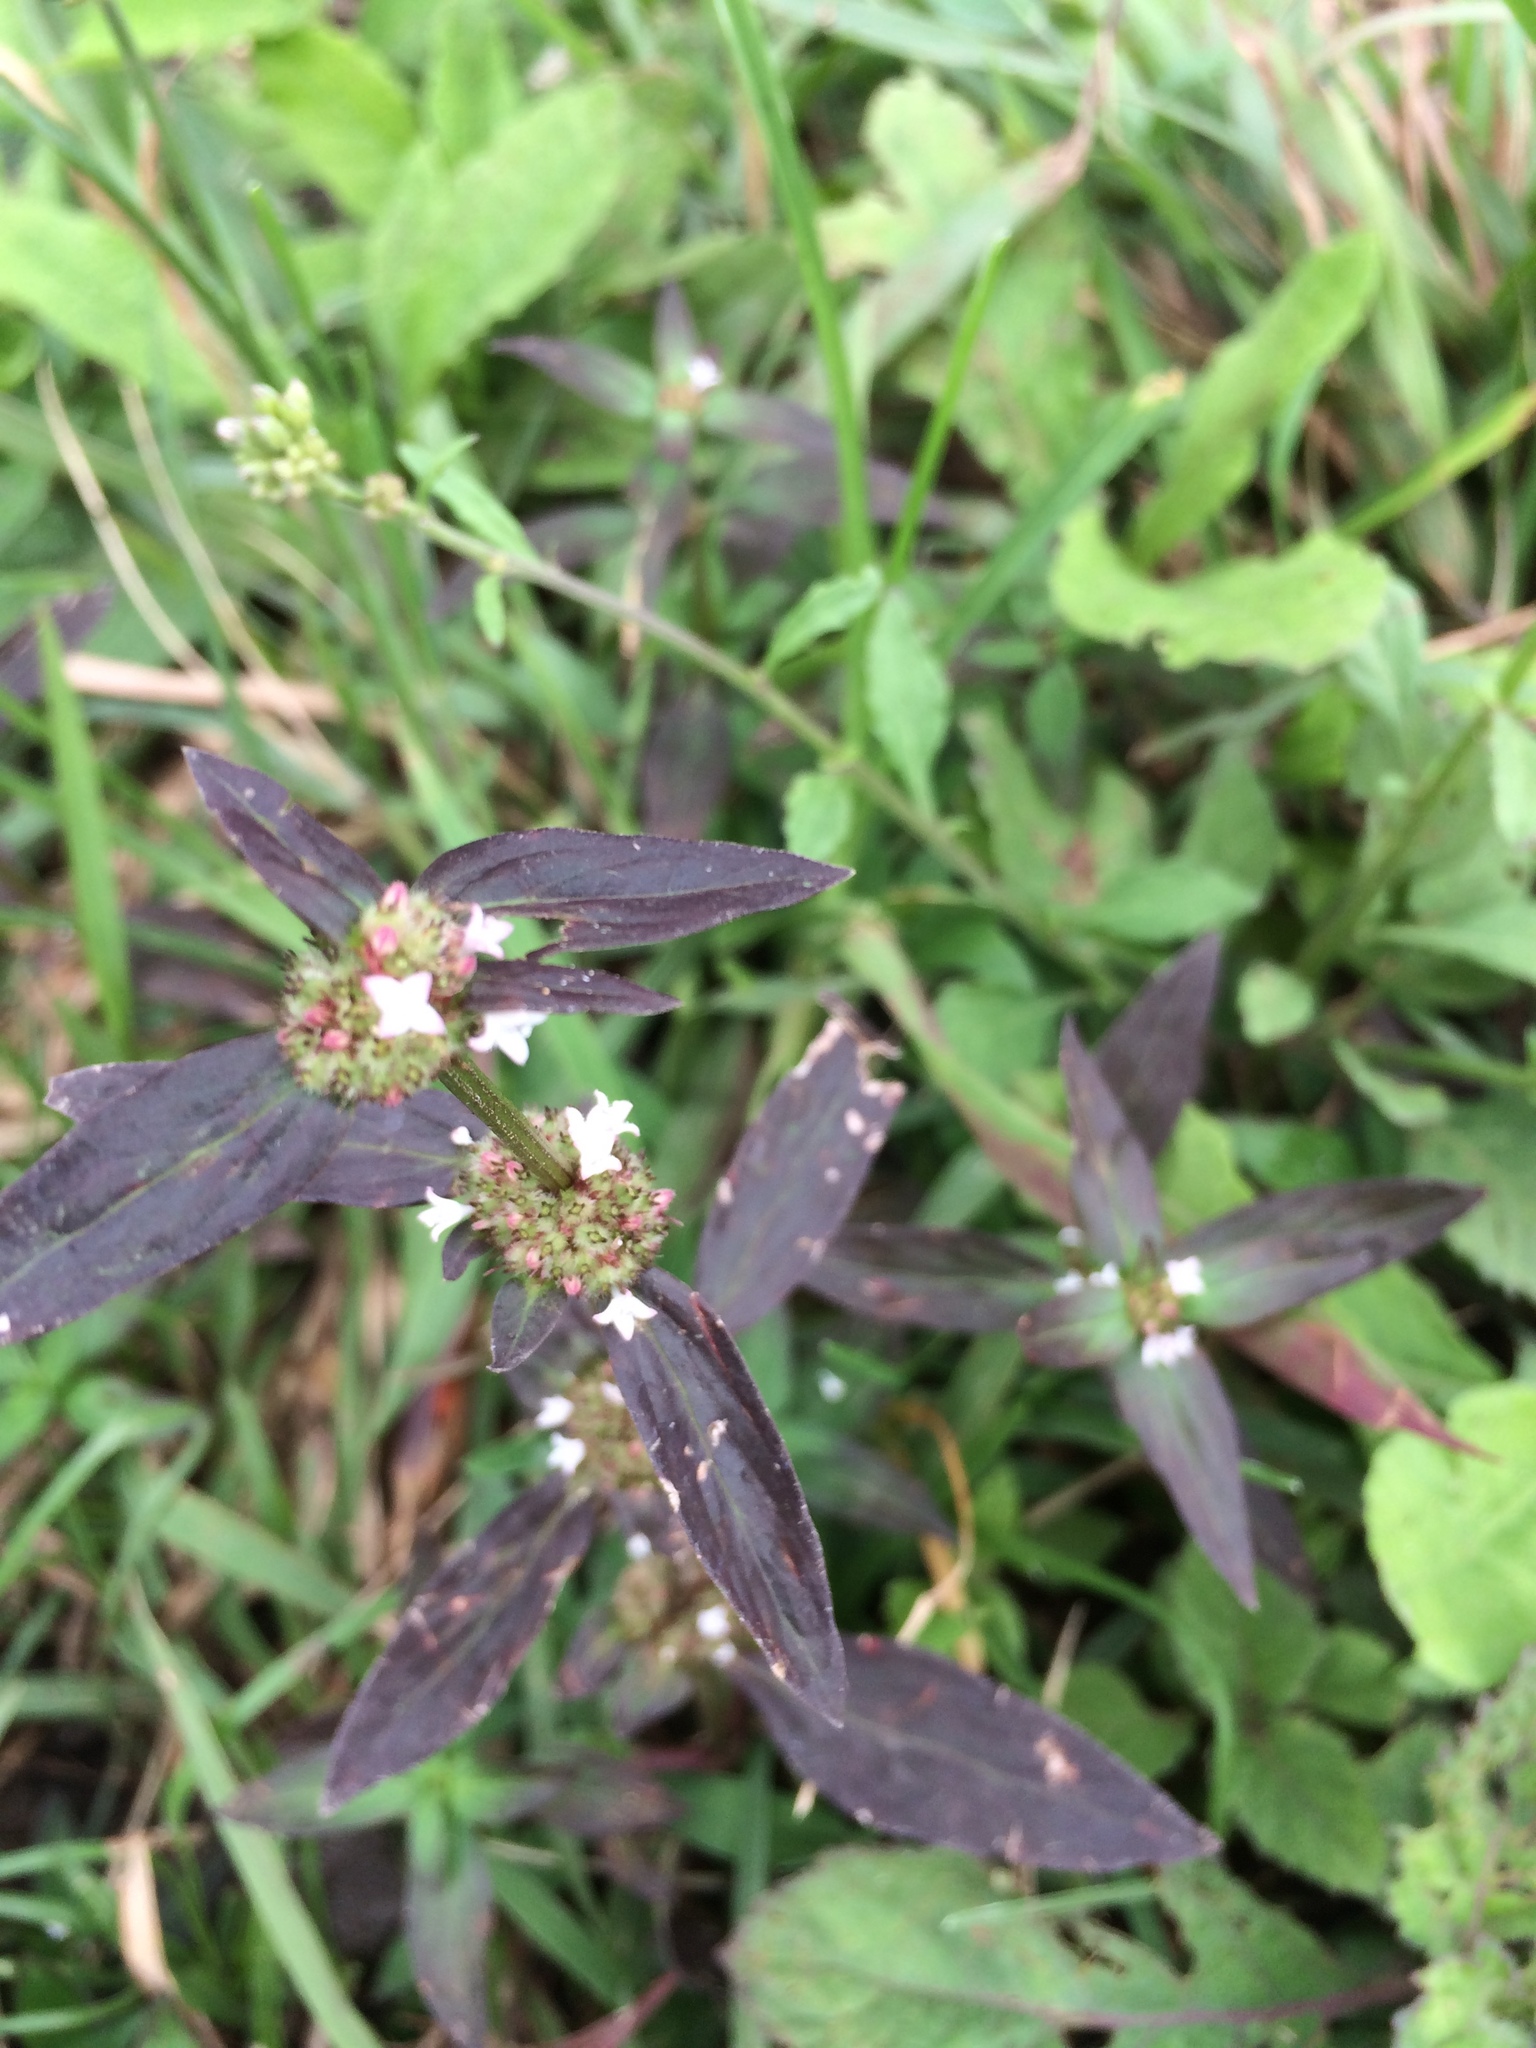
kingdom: Plantae
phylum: Tracheophyta
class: Magnoliopsida
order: Gentianales
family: Rubiaceae
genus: Spermacoce
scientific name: Spermacoce remota
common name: Woodland false buttonweed
